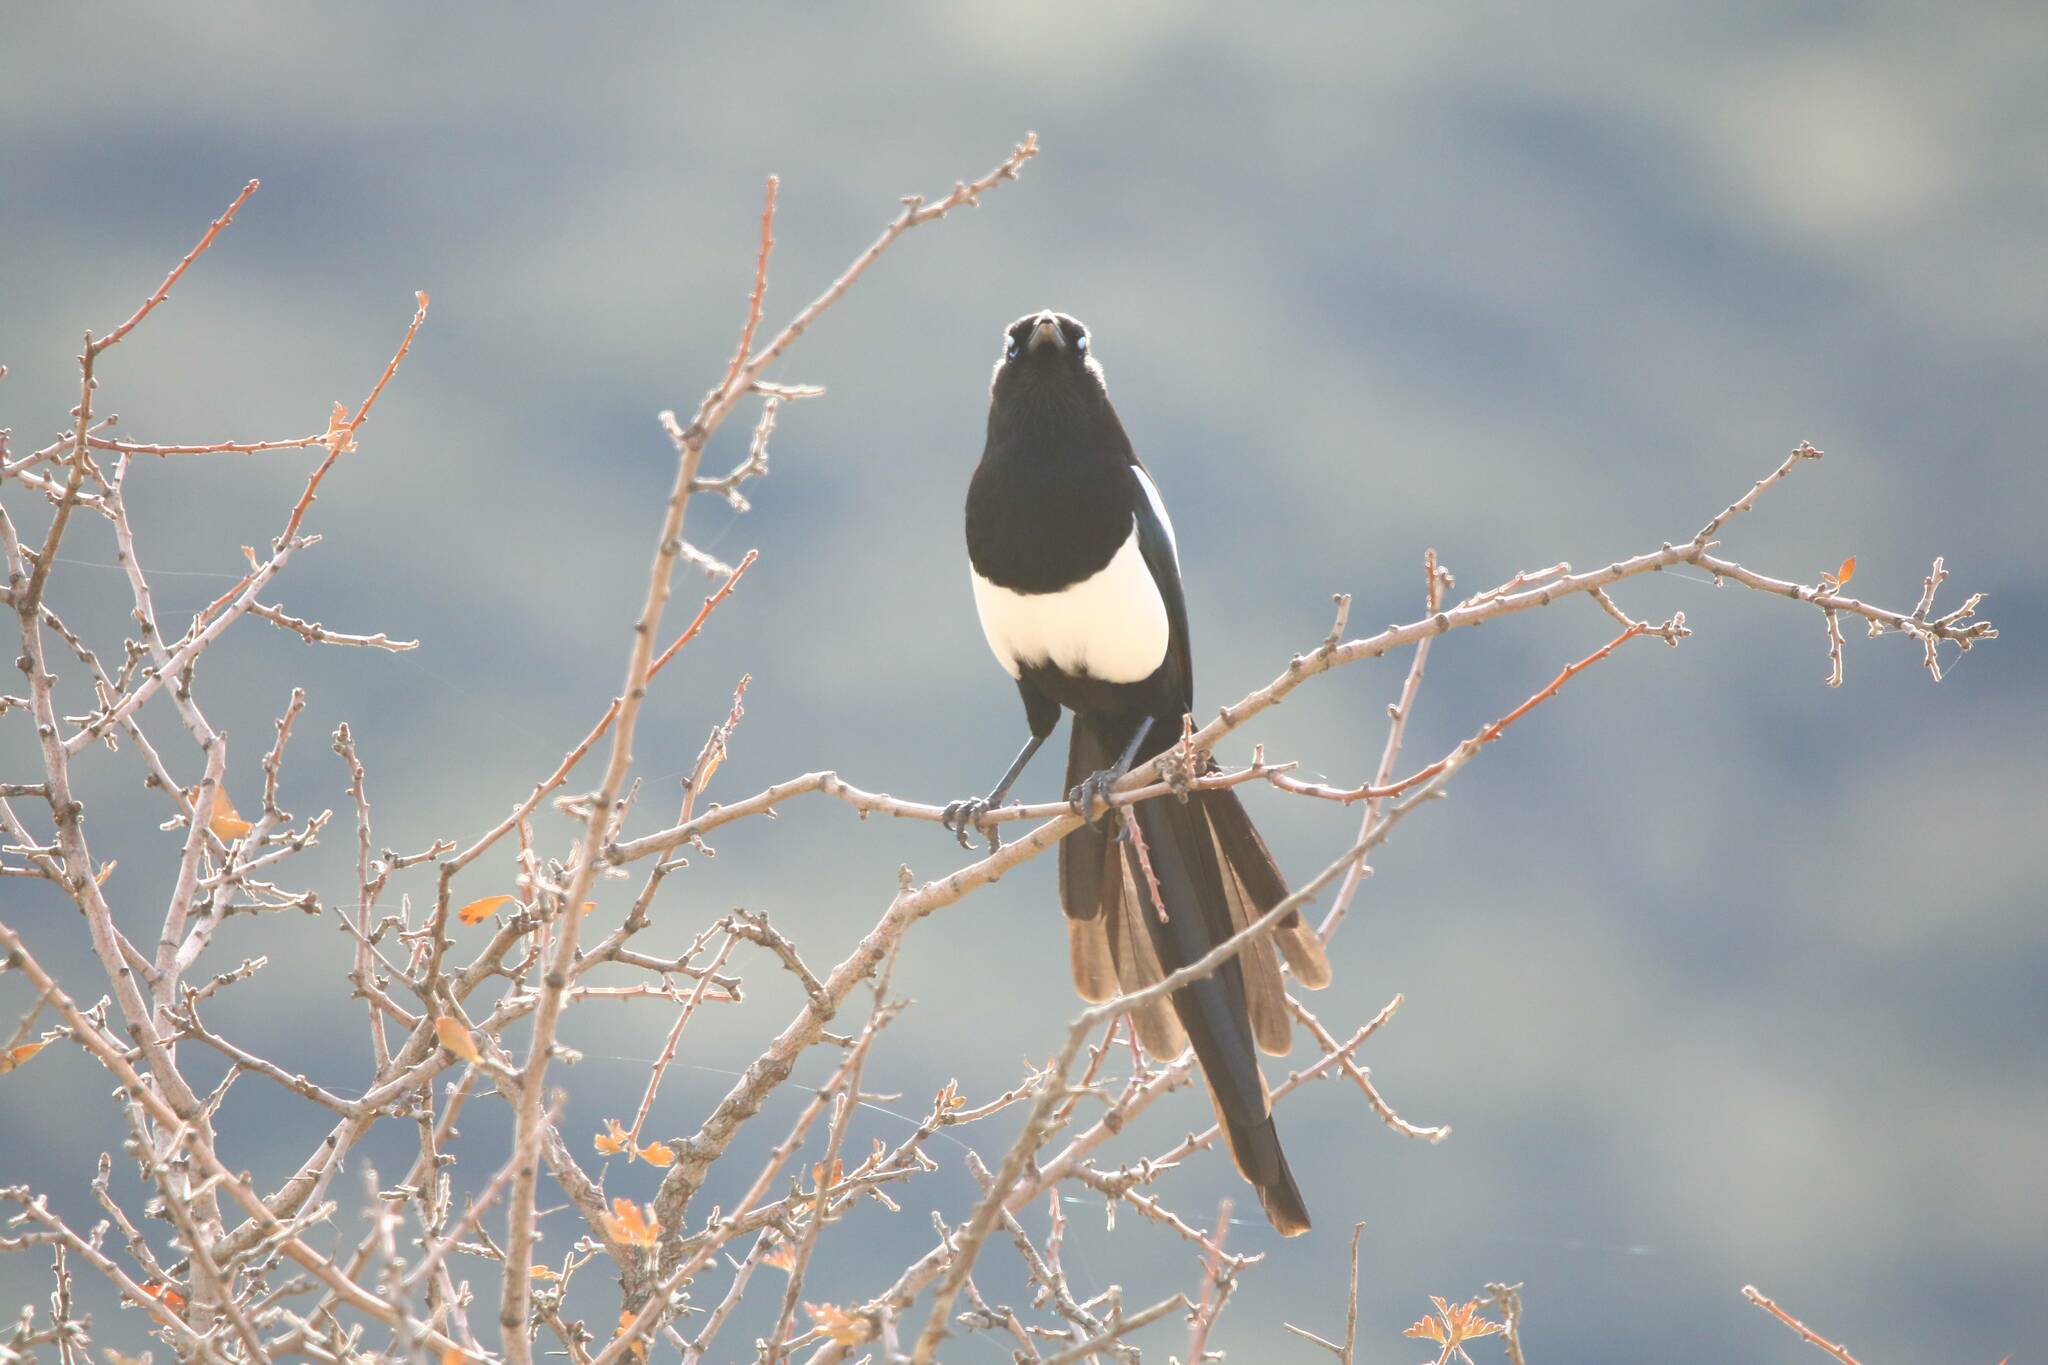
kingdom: Animalia
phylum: Chordata
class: Aves
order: Passeriformes
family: Corvidae
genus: Pica
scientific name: Pica mauritanica
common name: Maghreb magpie
